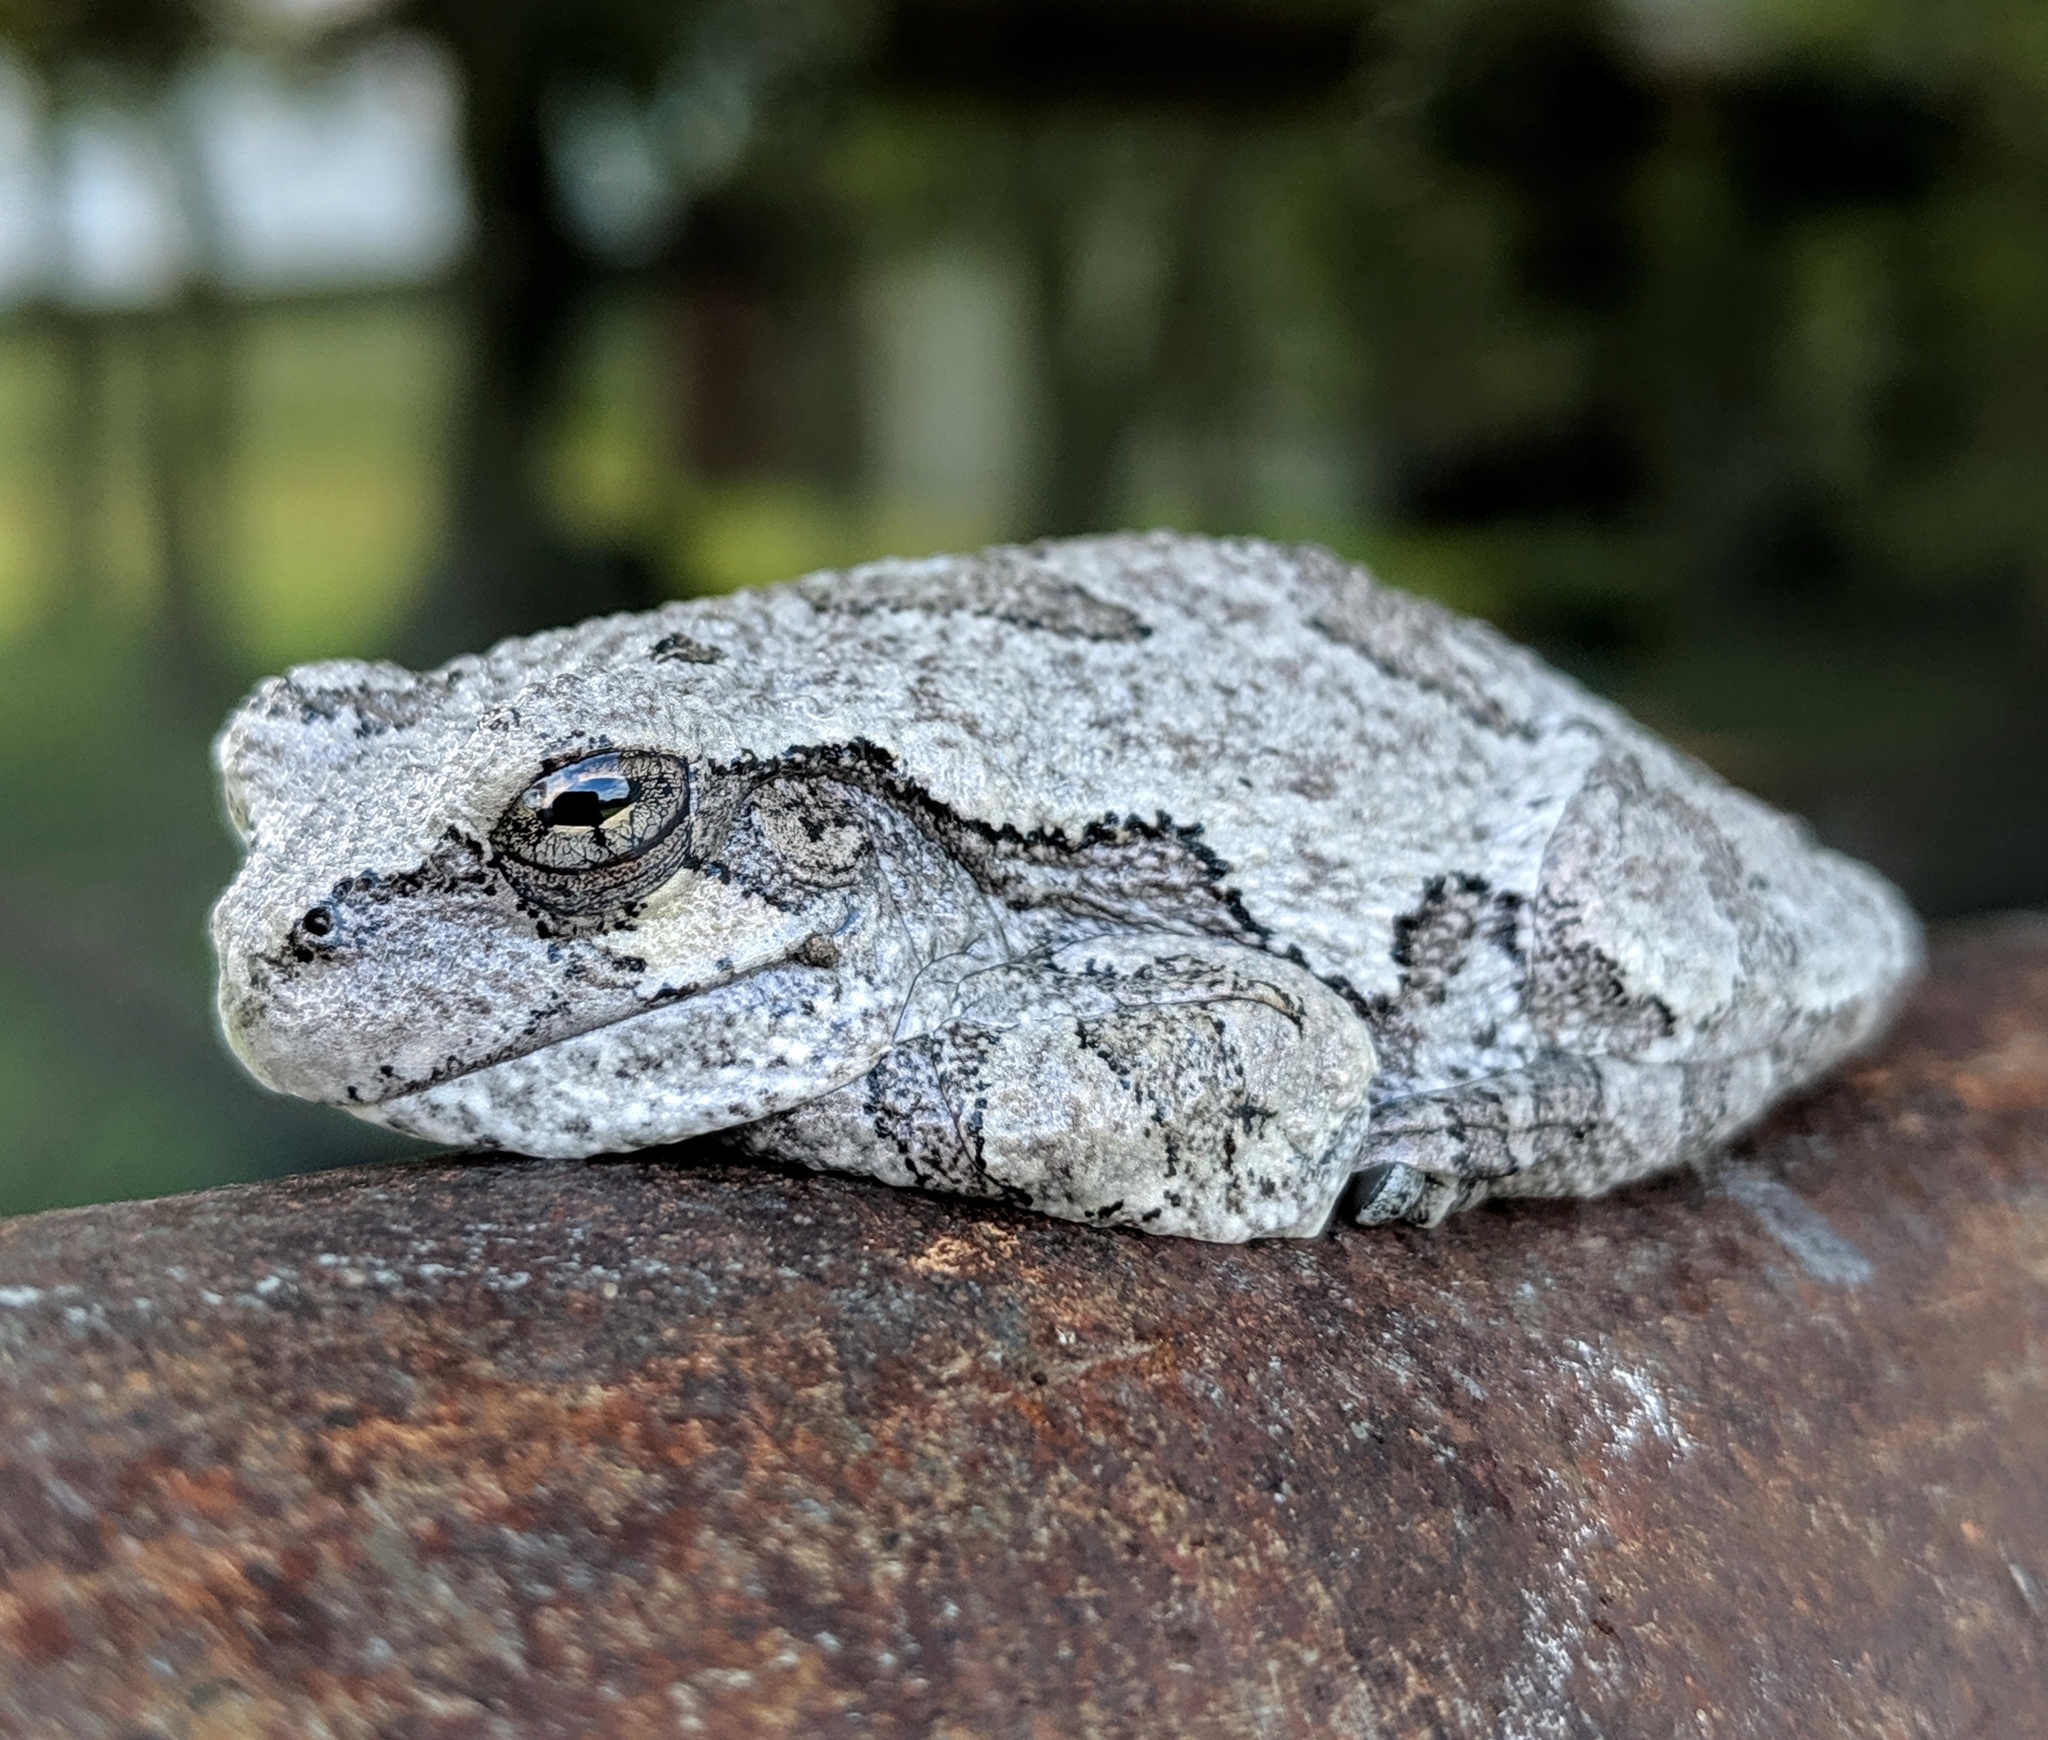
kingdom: Animalia
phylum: Chordata
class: Amphibia
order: Anura
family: Hylidae
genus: Dryophytes
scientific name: Dryophytes versicolor
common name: Gray treefrog
